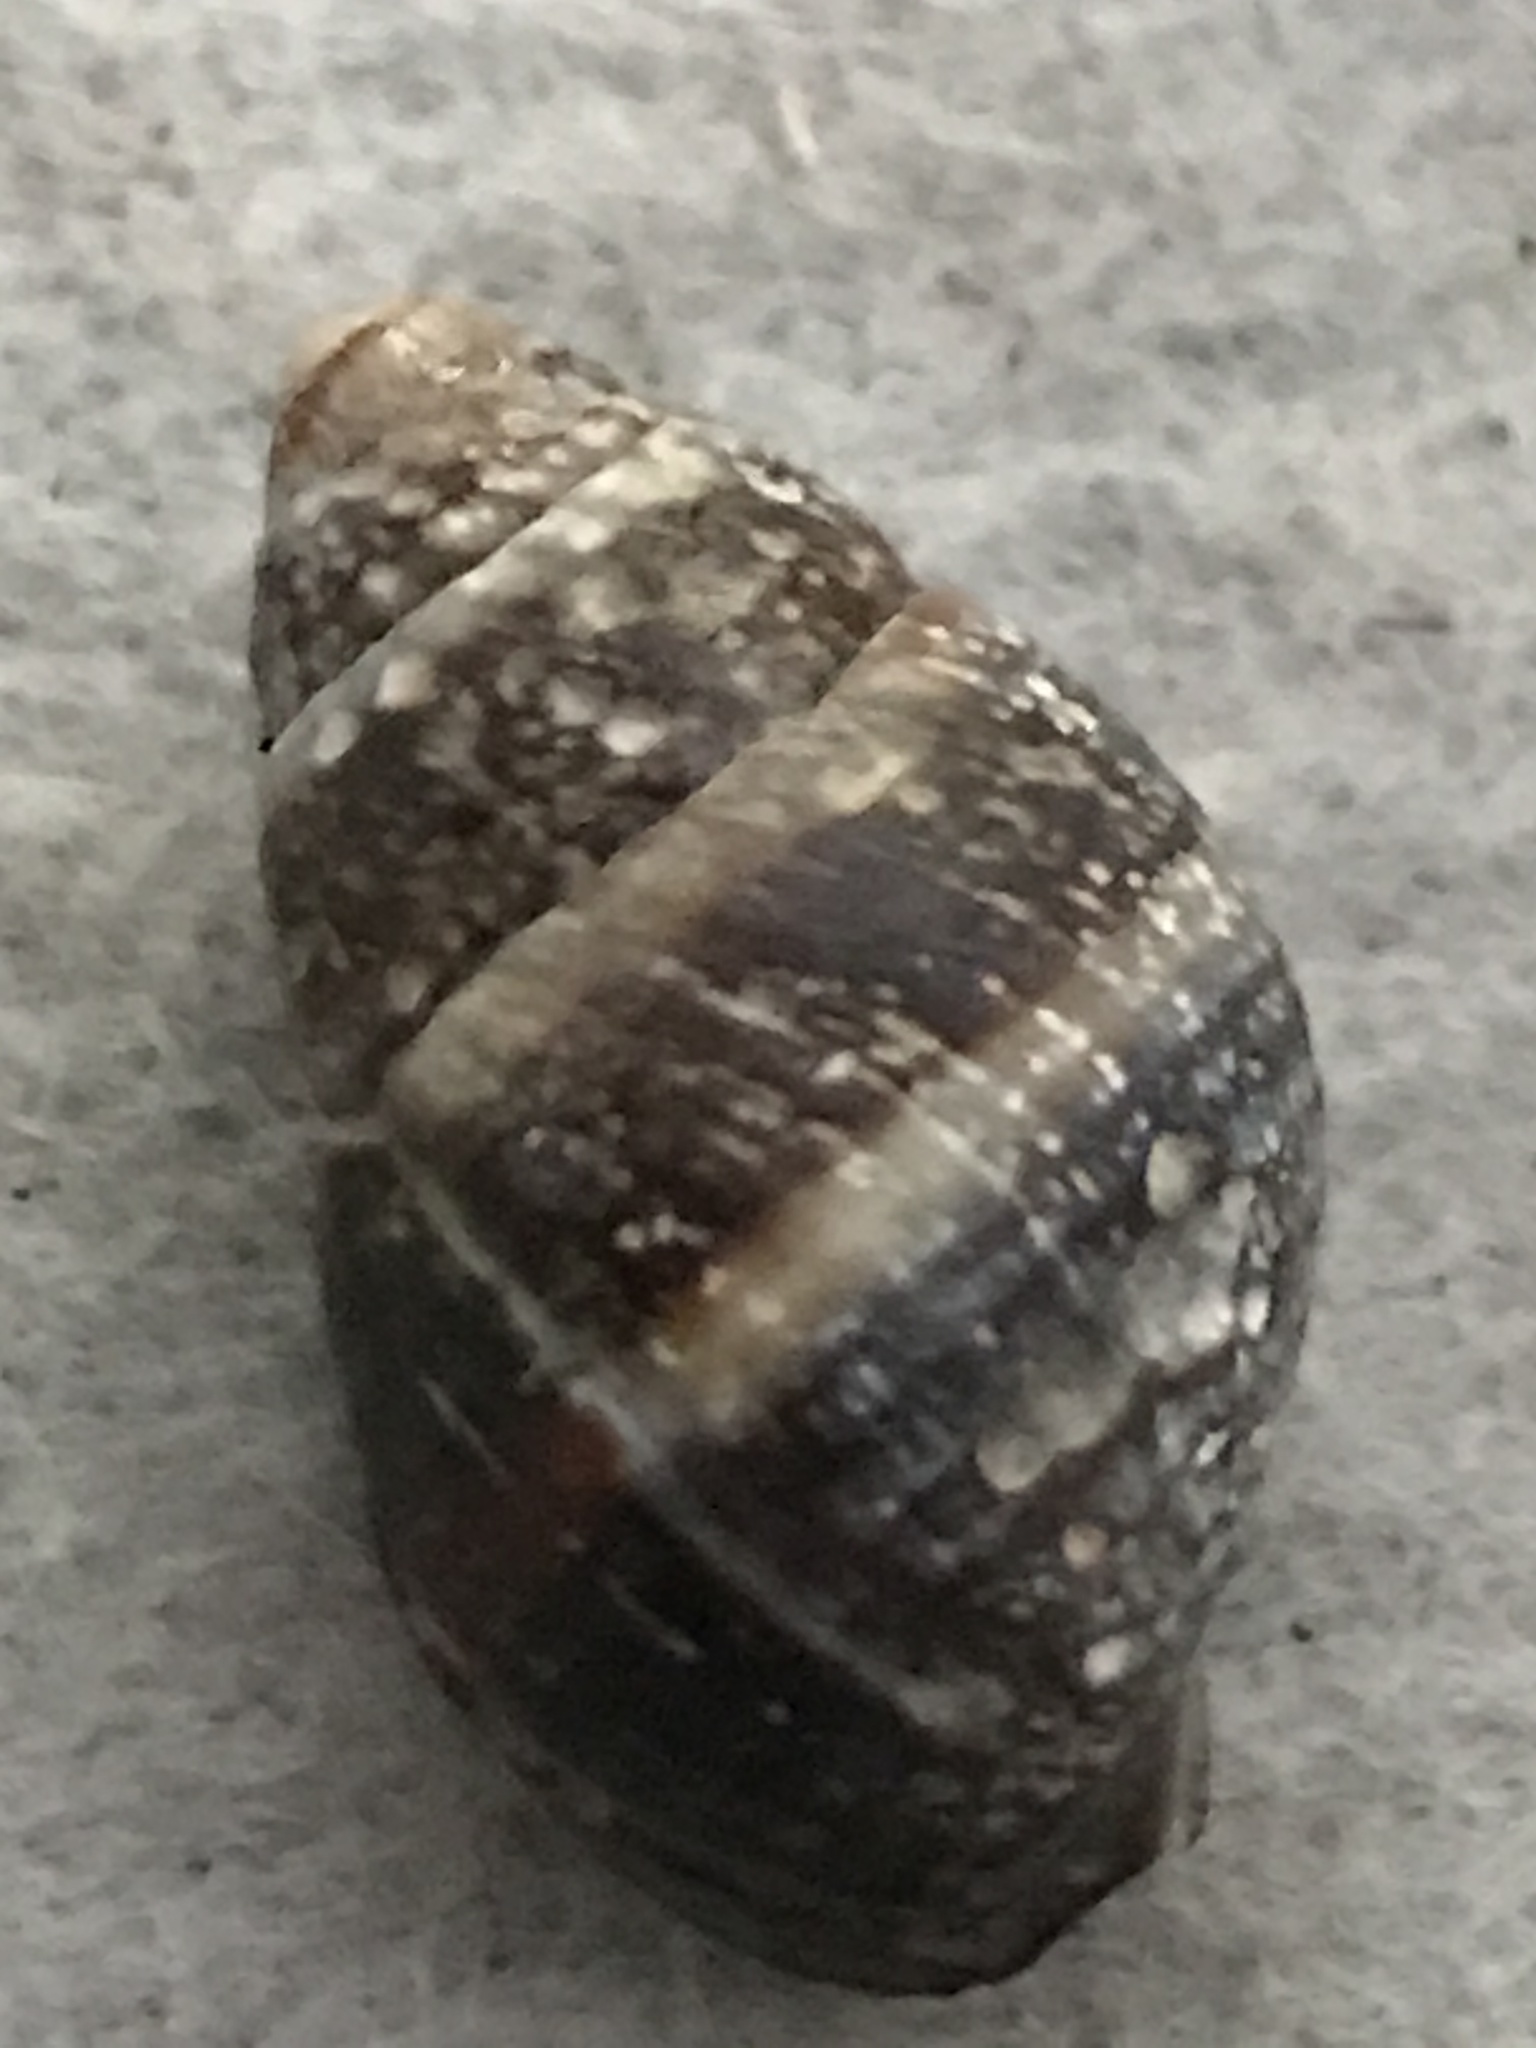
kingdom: Animalia
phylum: Mollusca
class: Gastropoda
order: Neogastropoda
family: Nassariidae
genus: Ilyanassa
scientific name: Ilyanassa obsoleta
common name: Eastern mudsnail
